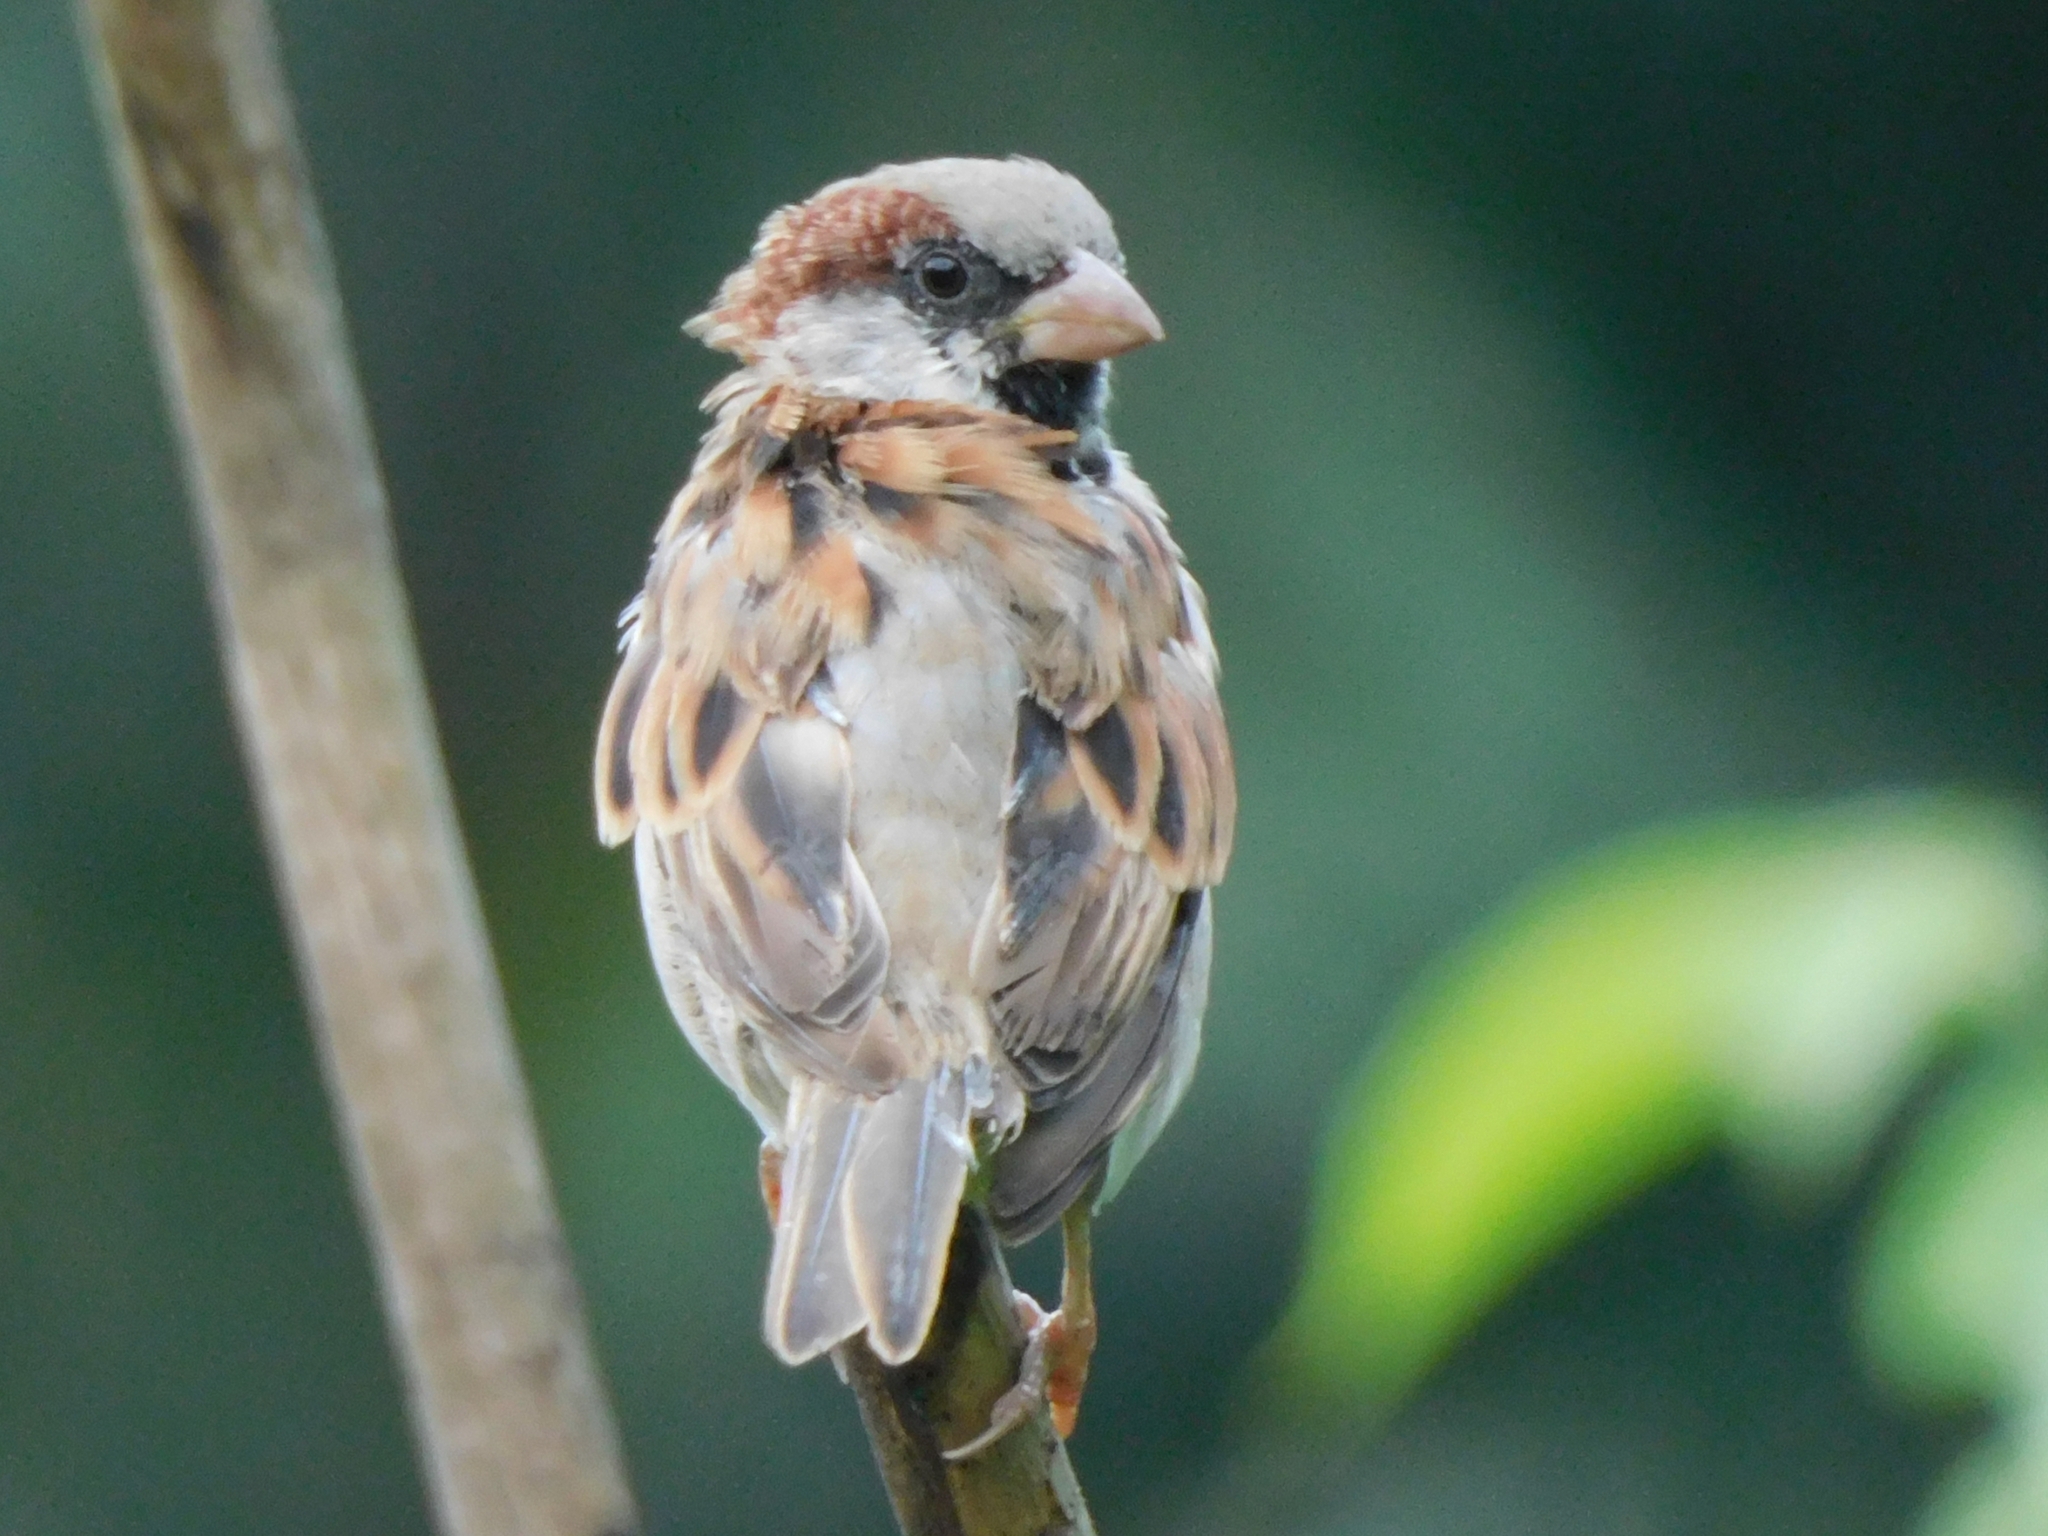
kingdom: Animalia
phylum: Chordata
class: Aves
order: Passeriformes
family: Passeridae
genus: Passer
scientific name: Passer domesticus
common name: House sparrow
